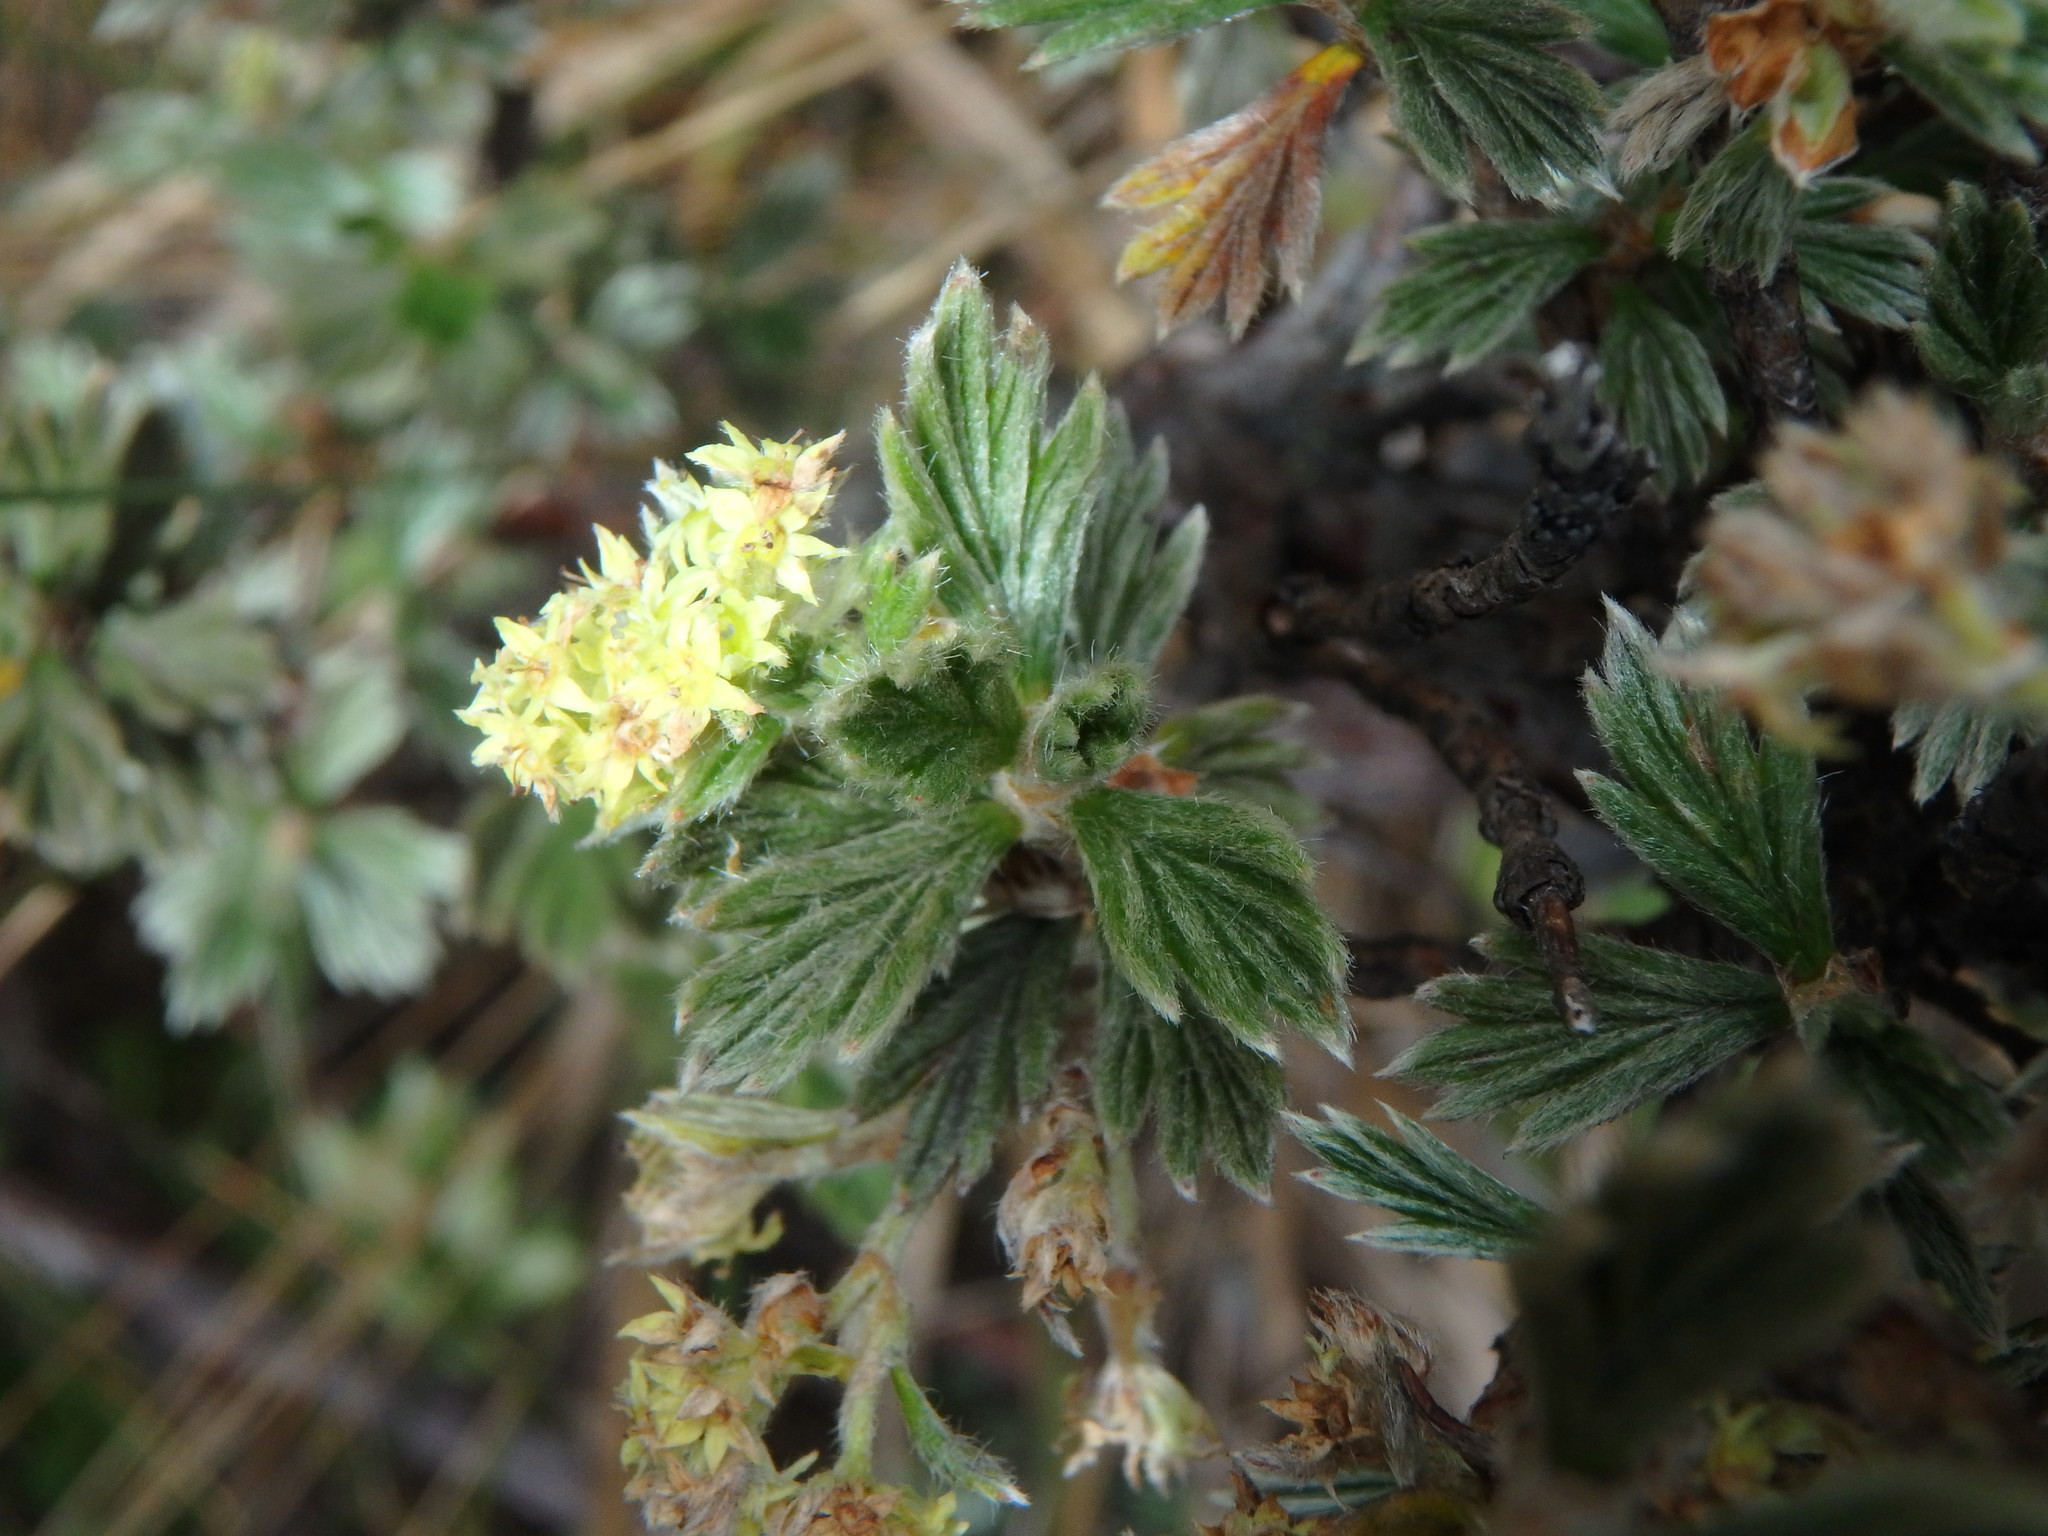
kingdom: Plantae
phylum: Tracheophyta
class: Magnoliopsida
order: Rosales
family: Rosaceae
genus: Lachemilla
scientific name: Lachemilla polylepis
